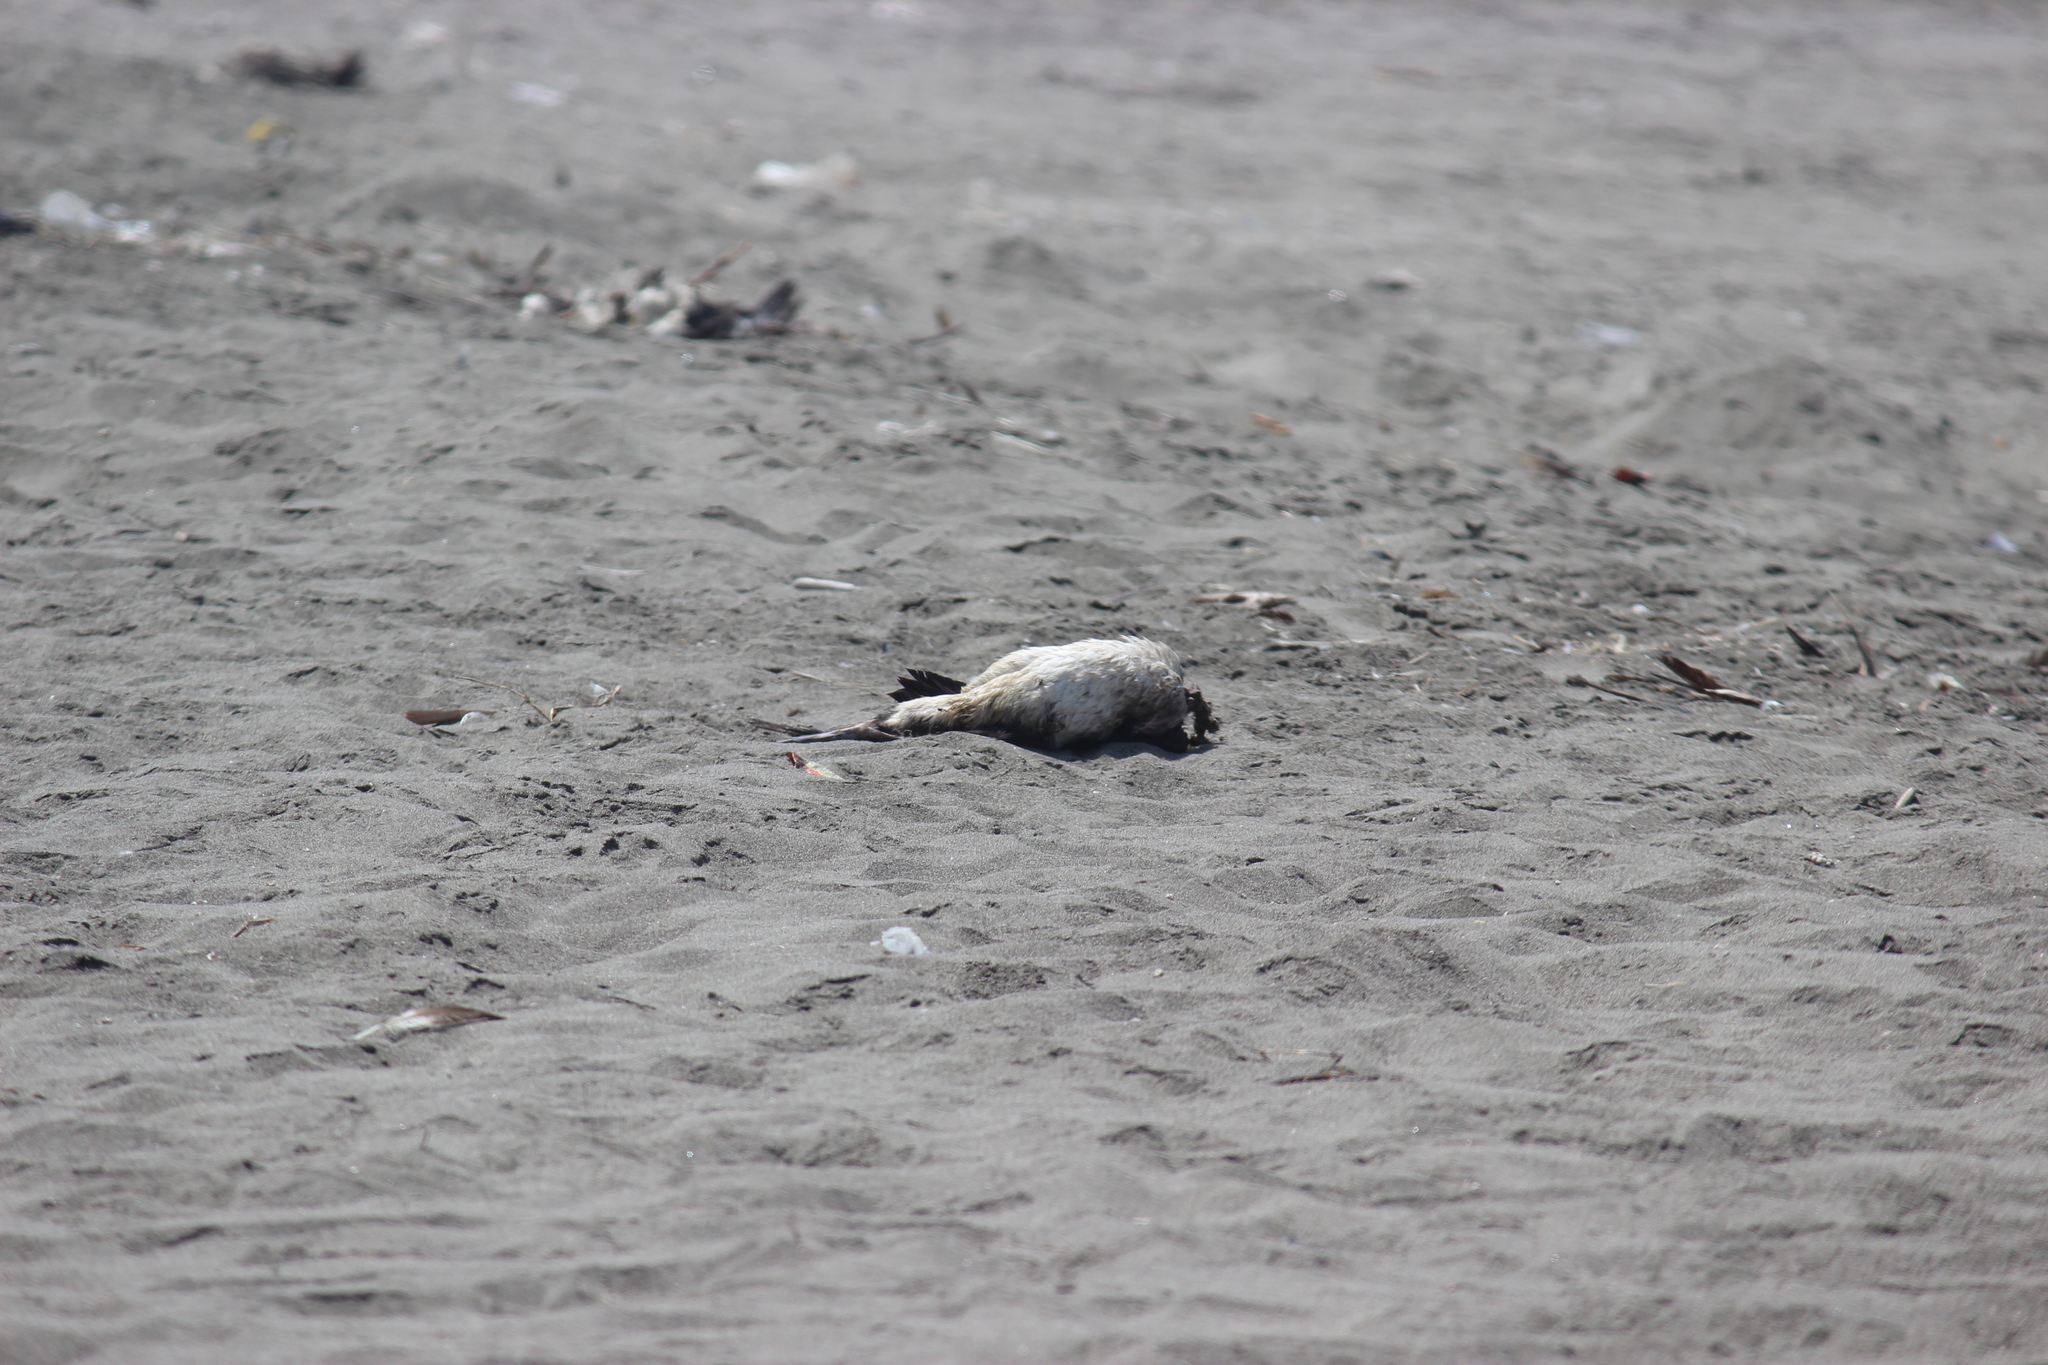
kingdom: Animalia
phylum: Chordata
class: Aves
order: Suliformes
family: Phalacrocoracidae
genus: Leucocarbo
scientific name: Leucocarbo bougainvillii
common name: Guanay cormorant
